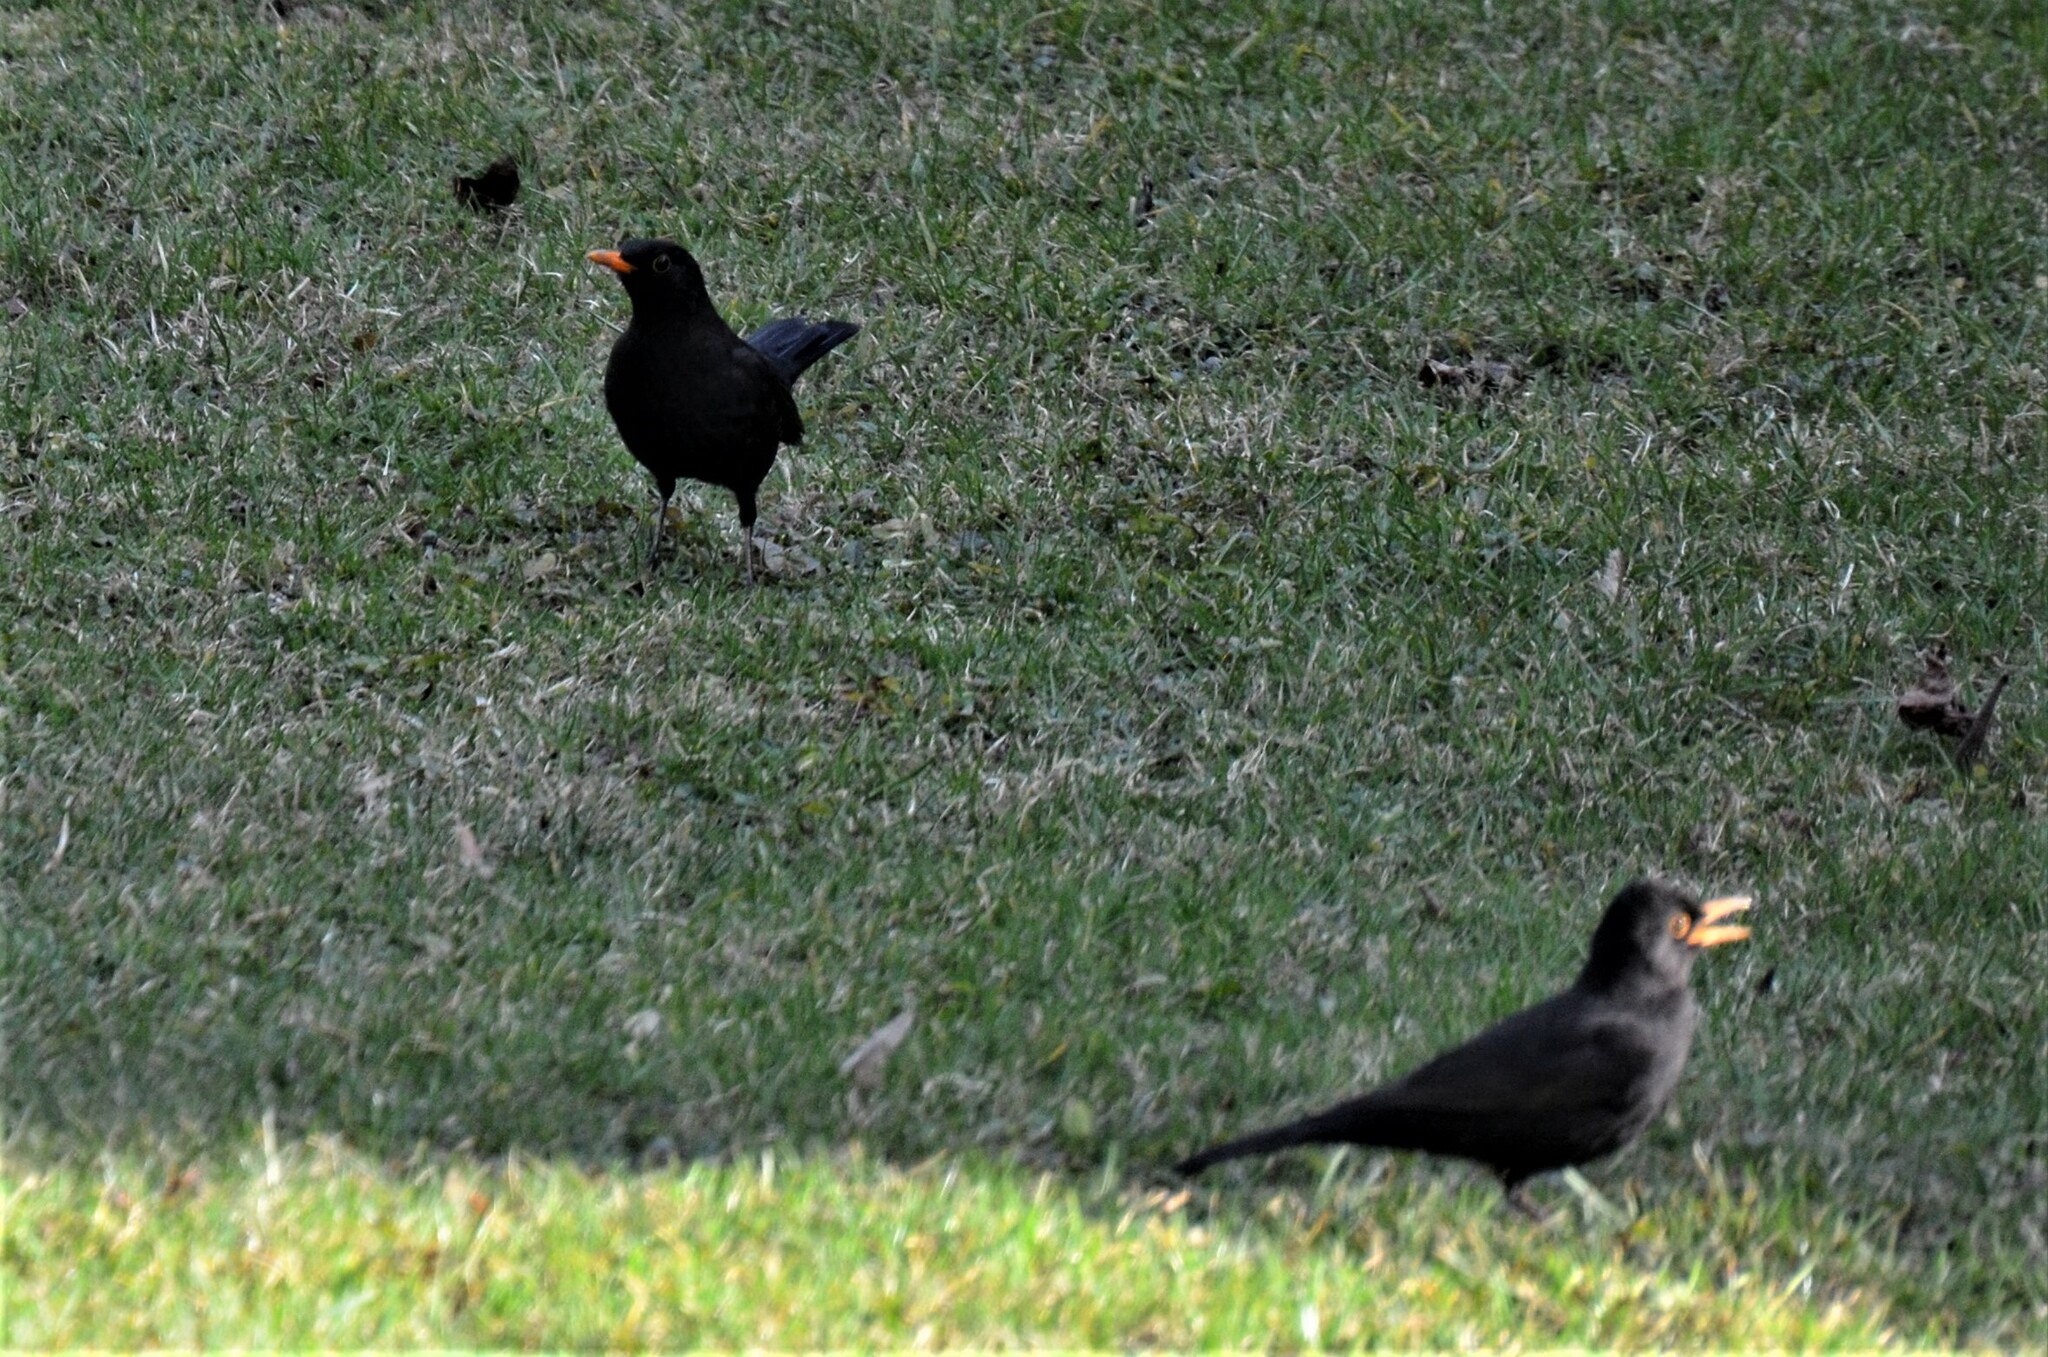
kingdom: Animalia
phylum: Chordata
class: Aves
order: Passeriformes
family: Turdidae
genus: Turdus
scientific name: Turdus merula
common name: Common blackbird
